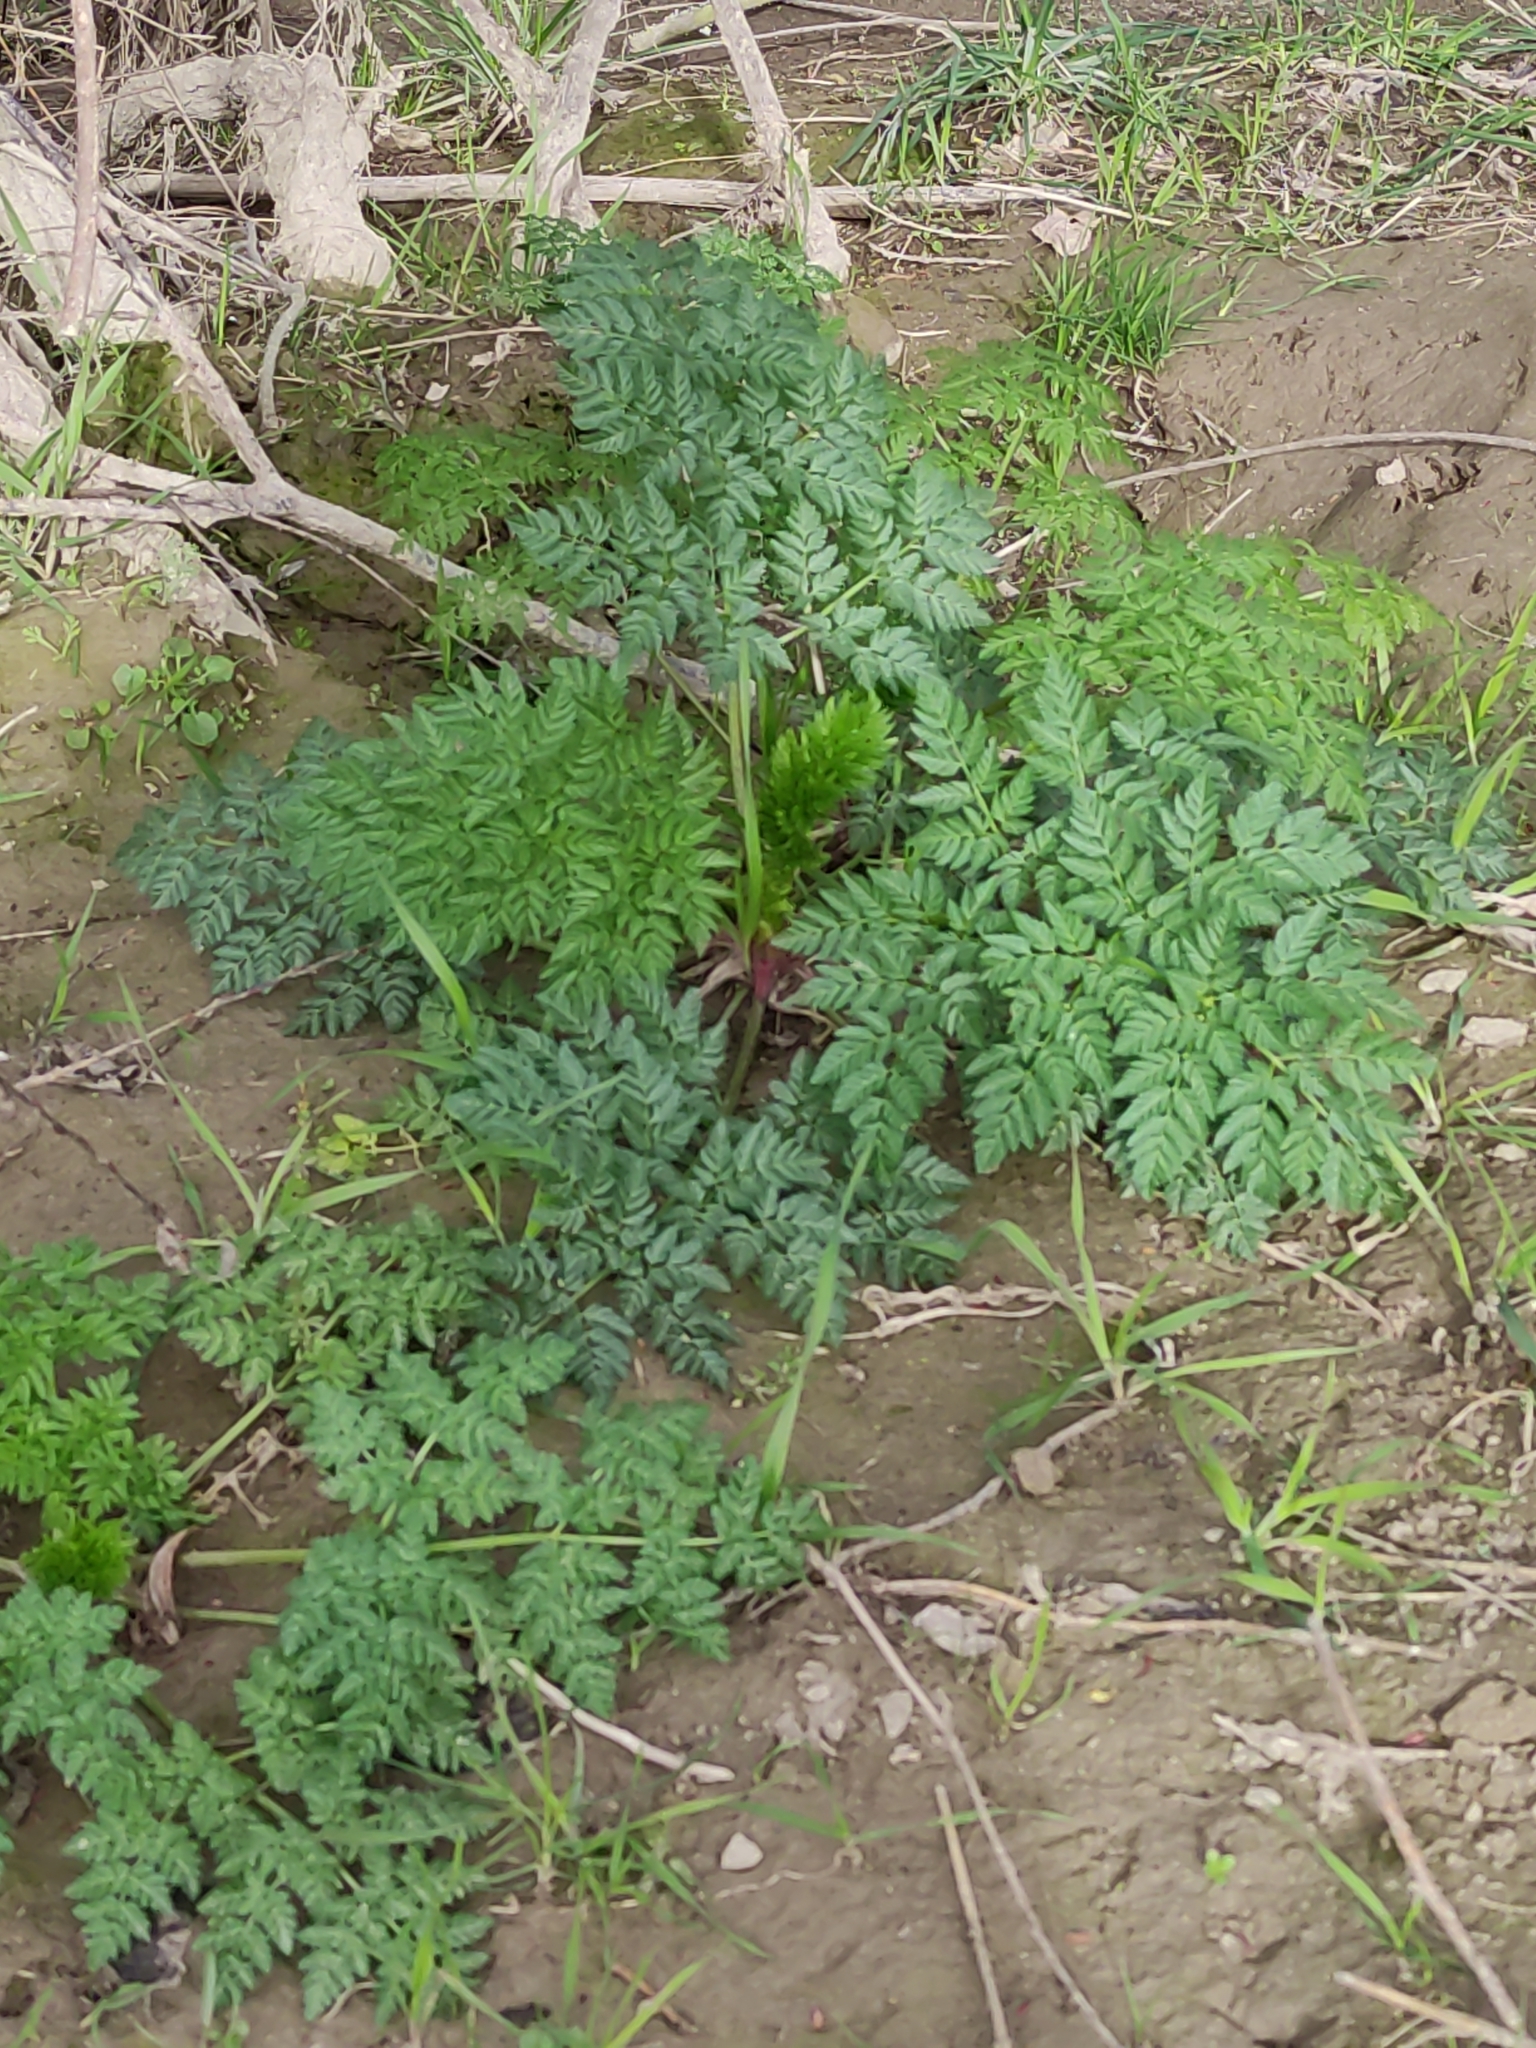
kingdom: Plantae
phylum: Tracheophyta
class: Magnoliopsida
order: Apiales
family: Apiaceae
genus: Conium
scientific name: Conium maculatum
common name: Hemlock
